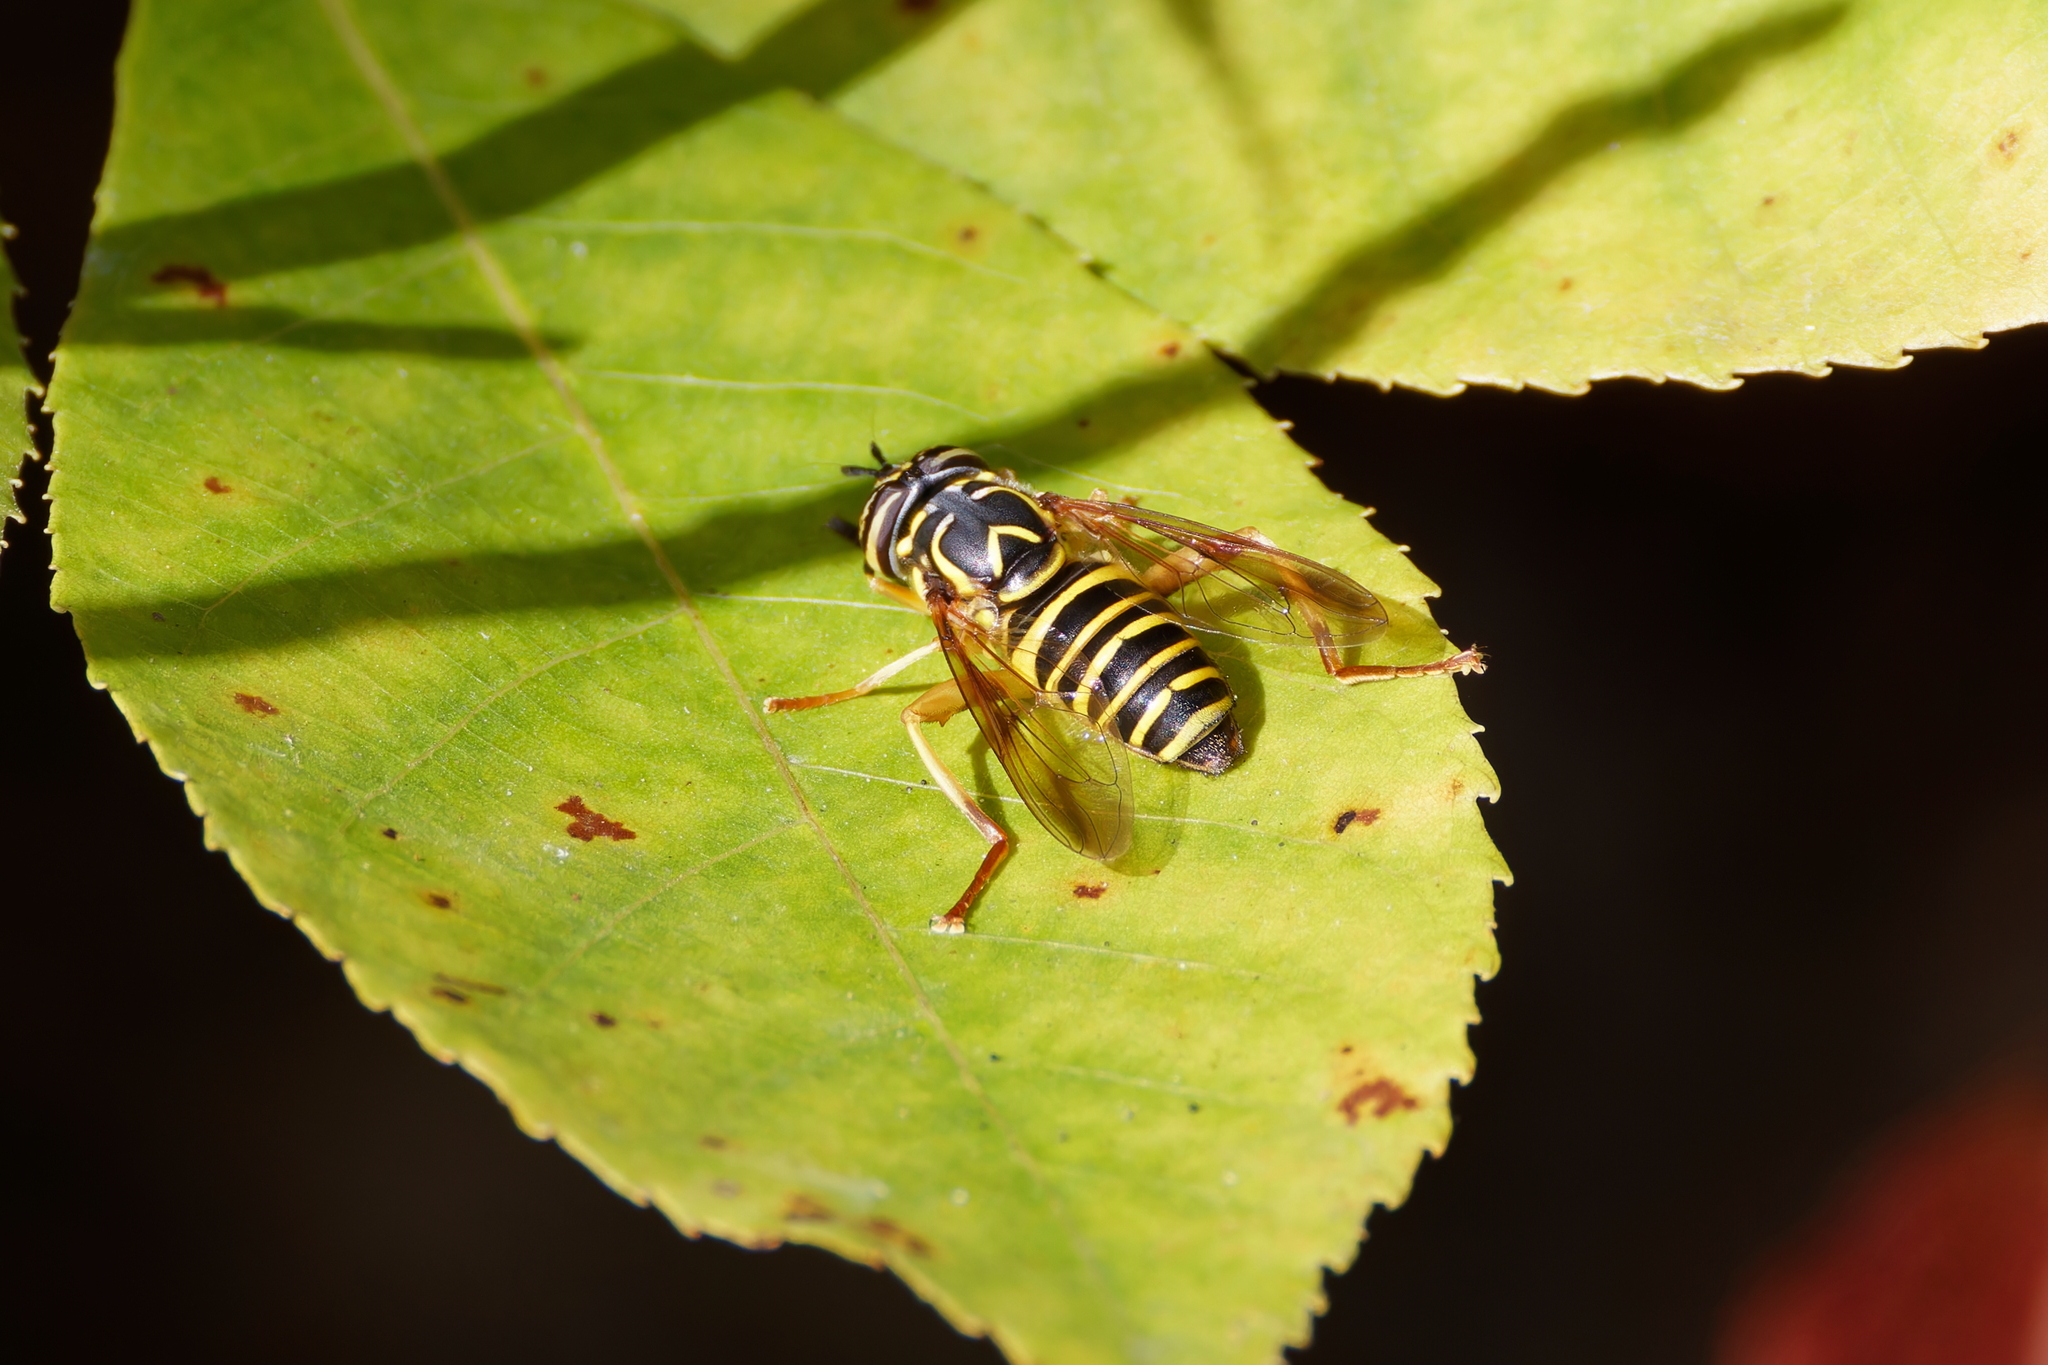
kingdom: Animalia
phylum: Arthropoda
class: Insecta
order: Diptera
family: Syrphidae
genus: Spilomyia
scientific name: Spilomyia longicornis
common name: Eastern hornet fly
